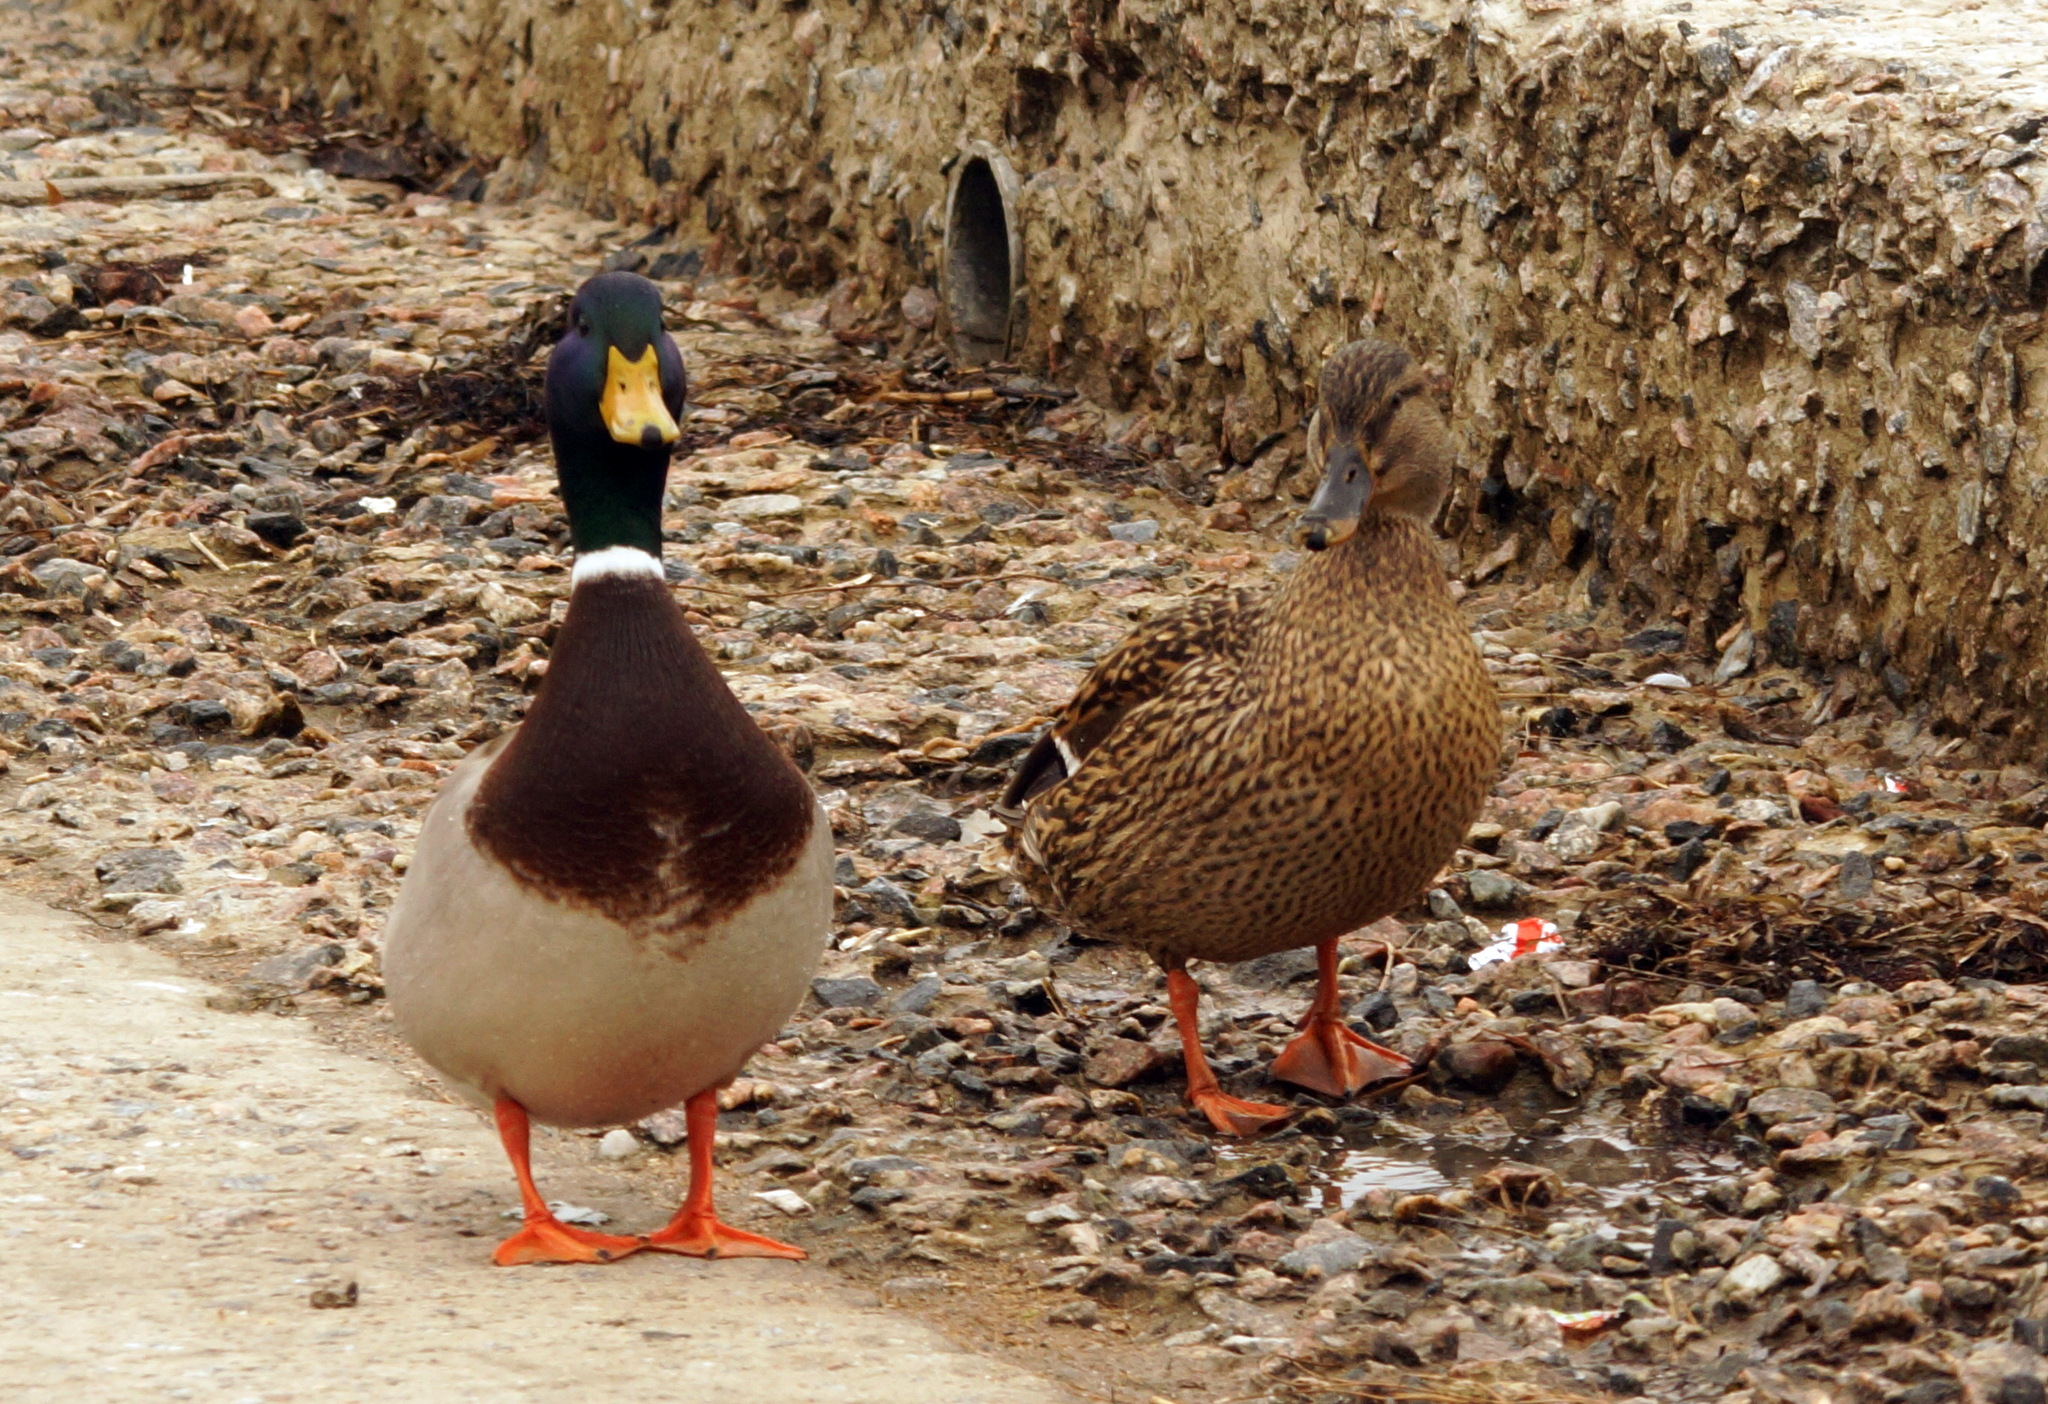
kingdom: Animalia
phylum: Chordata
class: Aves
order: Anseriformes
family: Anatidae
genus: Anas
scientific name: Anas platyrhynchos
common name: Mallard
